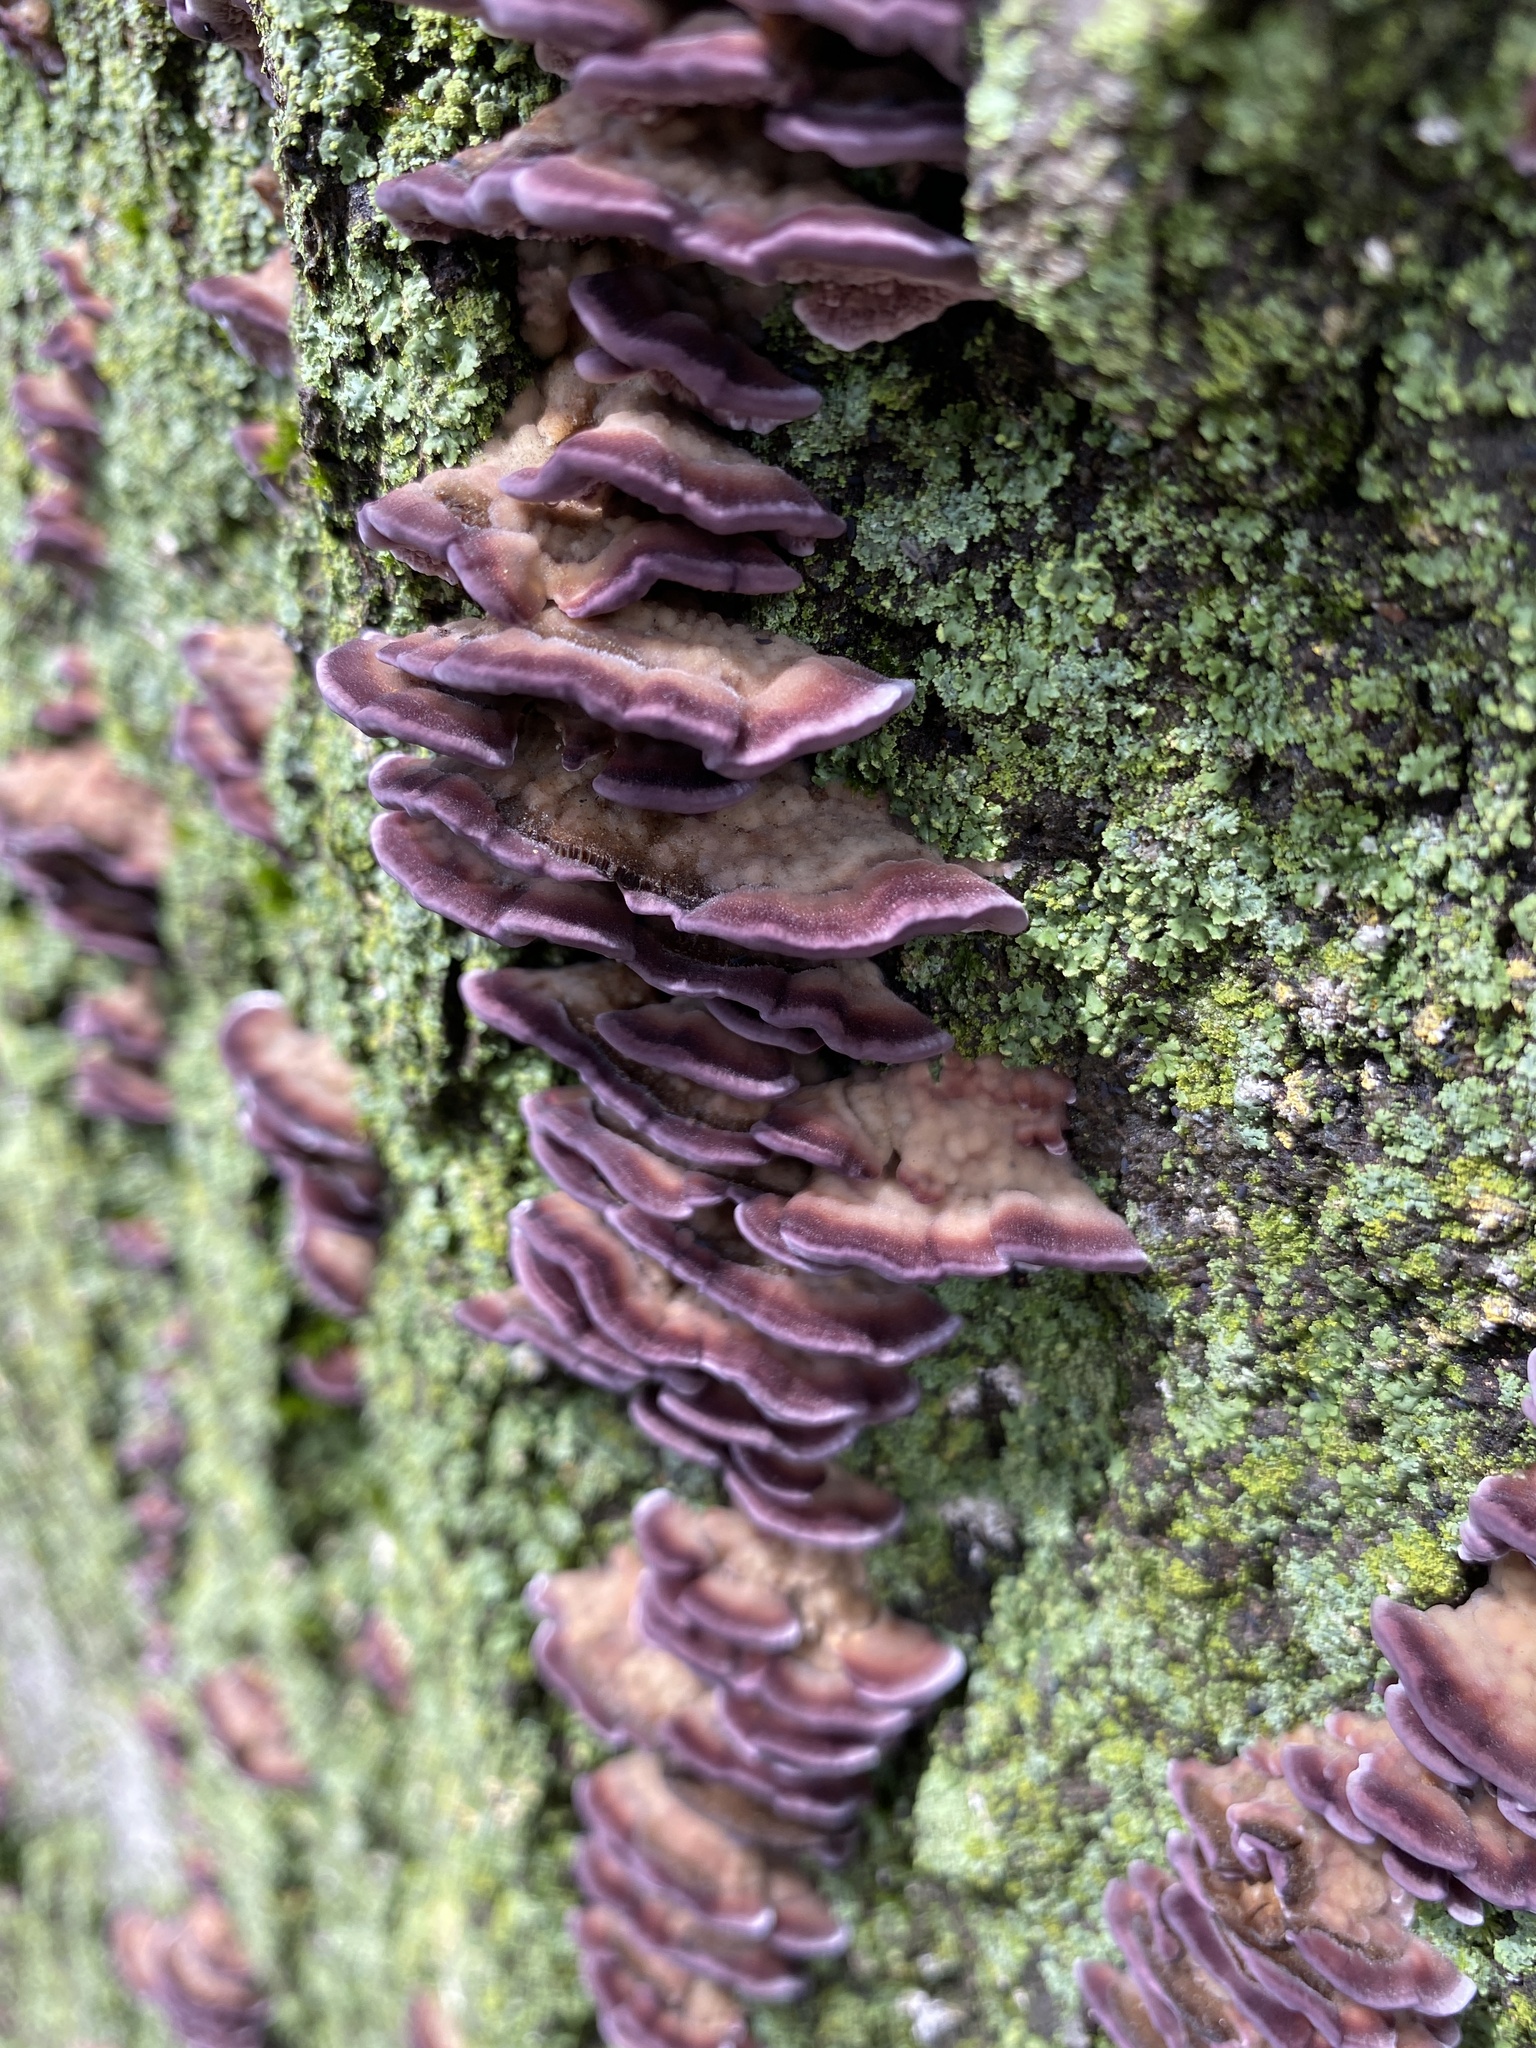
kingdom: Fungi
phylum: Basidiomycota
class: Agaricomycetes
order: Hymenochaetales
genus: Trichaptum
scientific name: Trichaptum biforme
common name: Violet-toothed polypore
